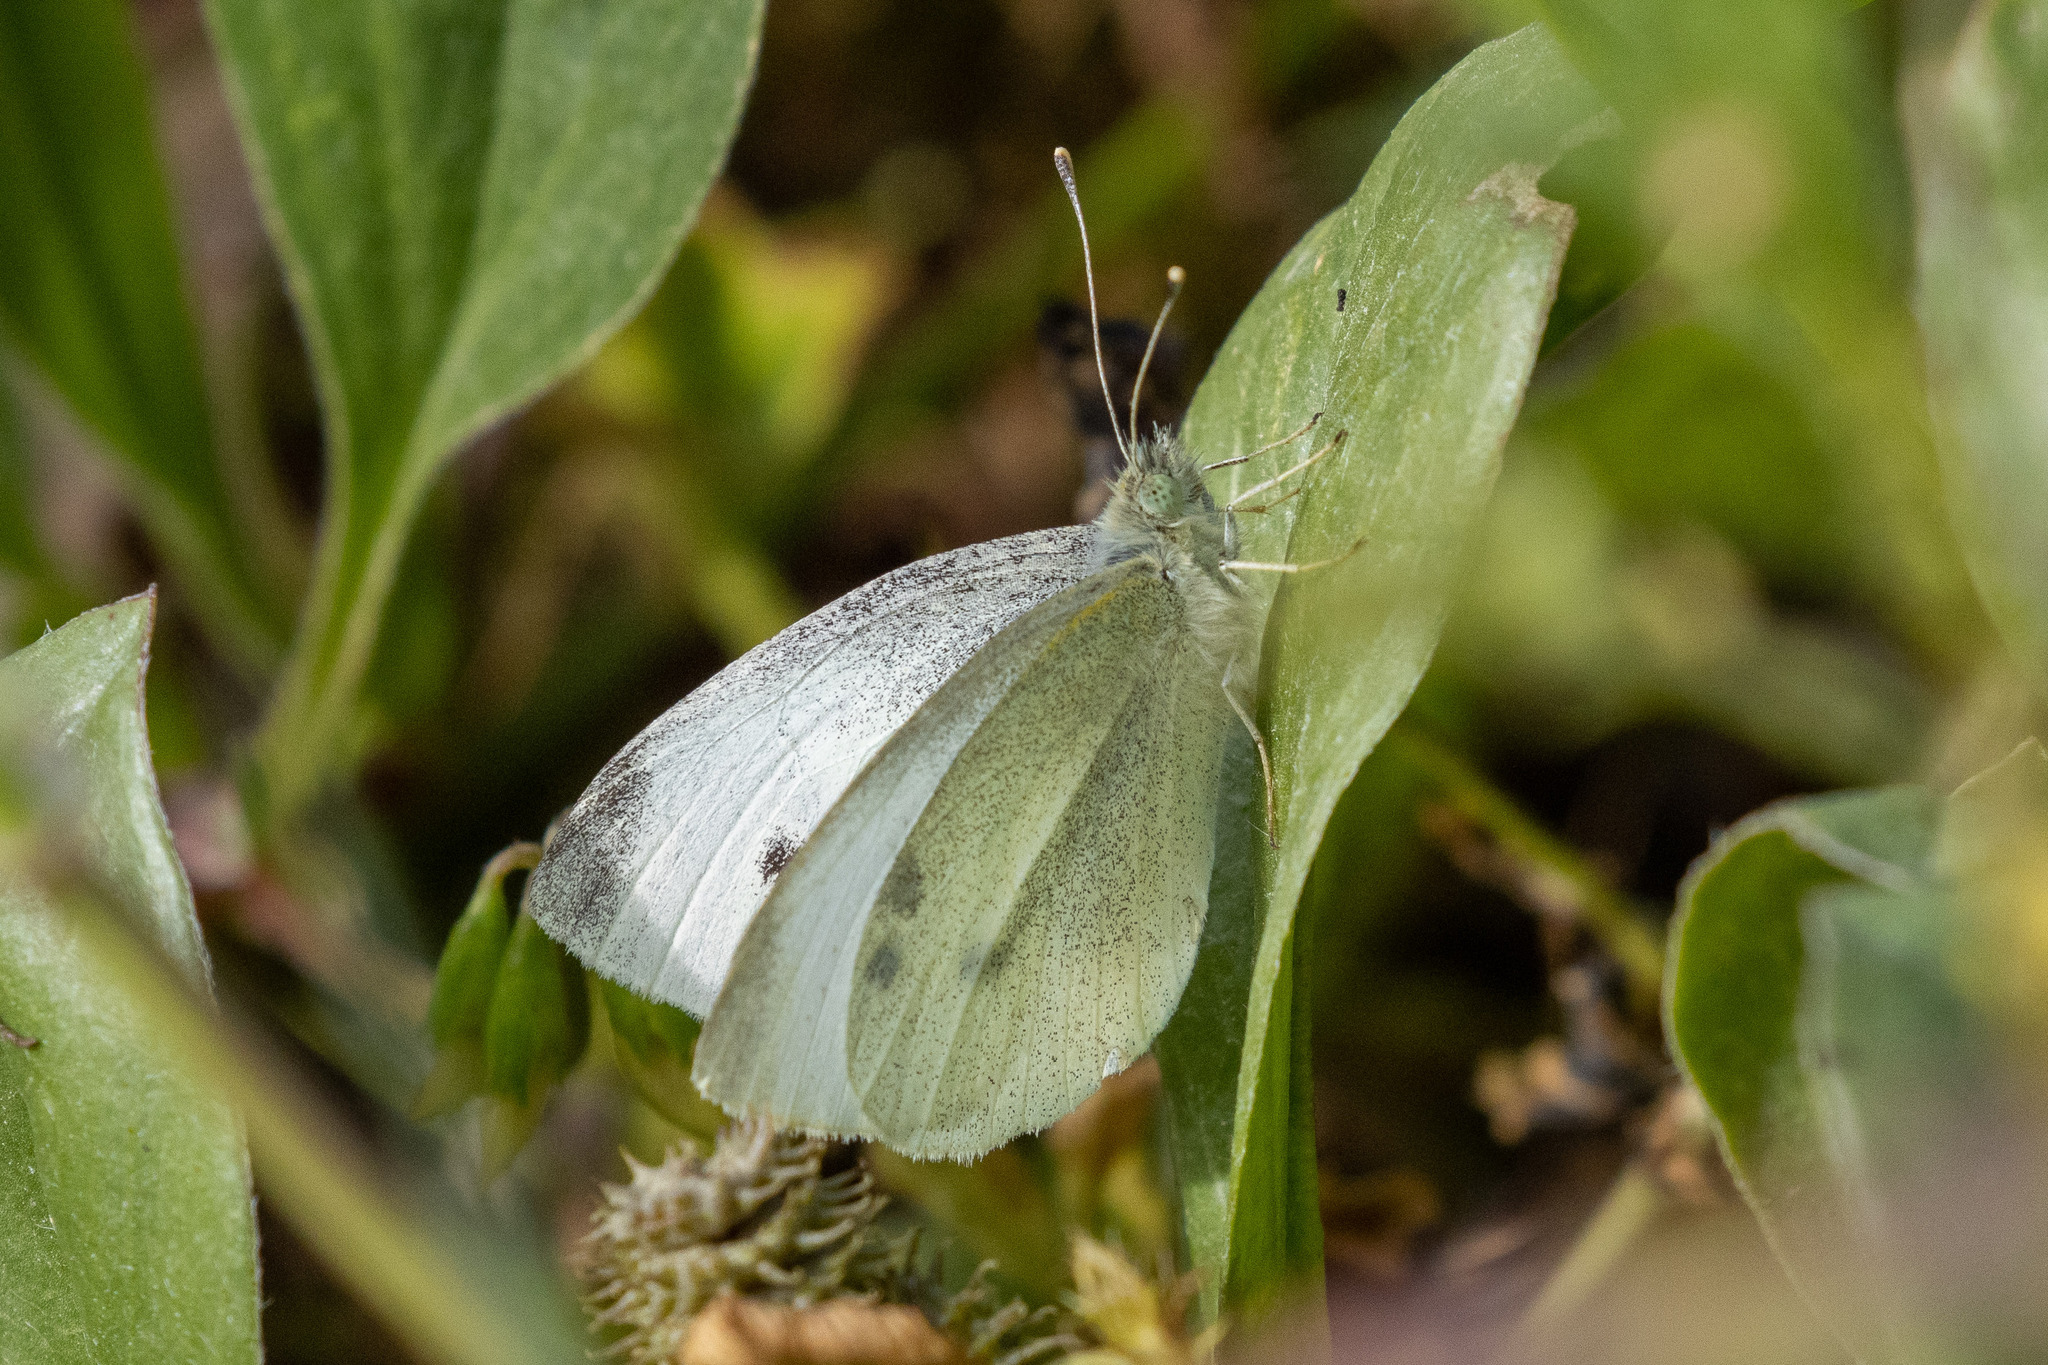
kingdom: Animalia
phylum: Arthropoda
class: Insecta
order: Lepidoptera
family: Pieridae
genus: Pieris
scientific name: Pieris rapae
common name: Small white
